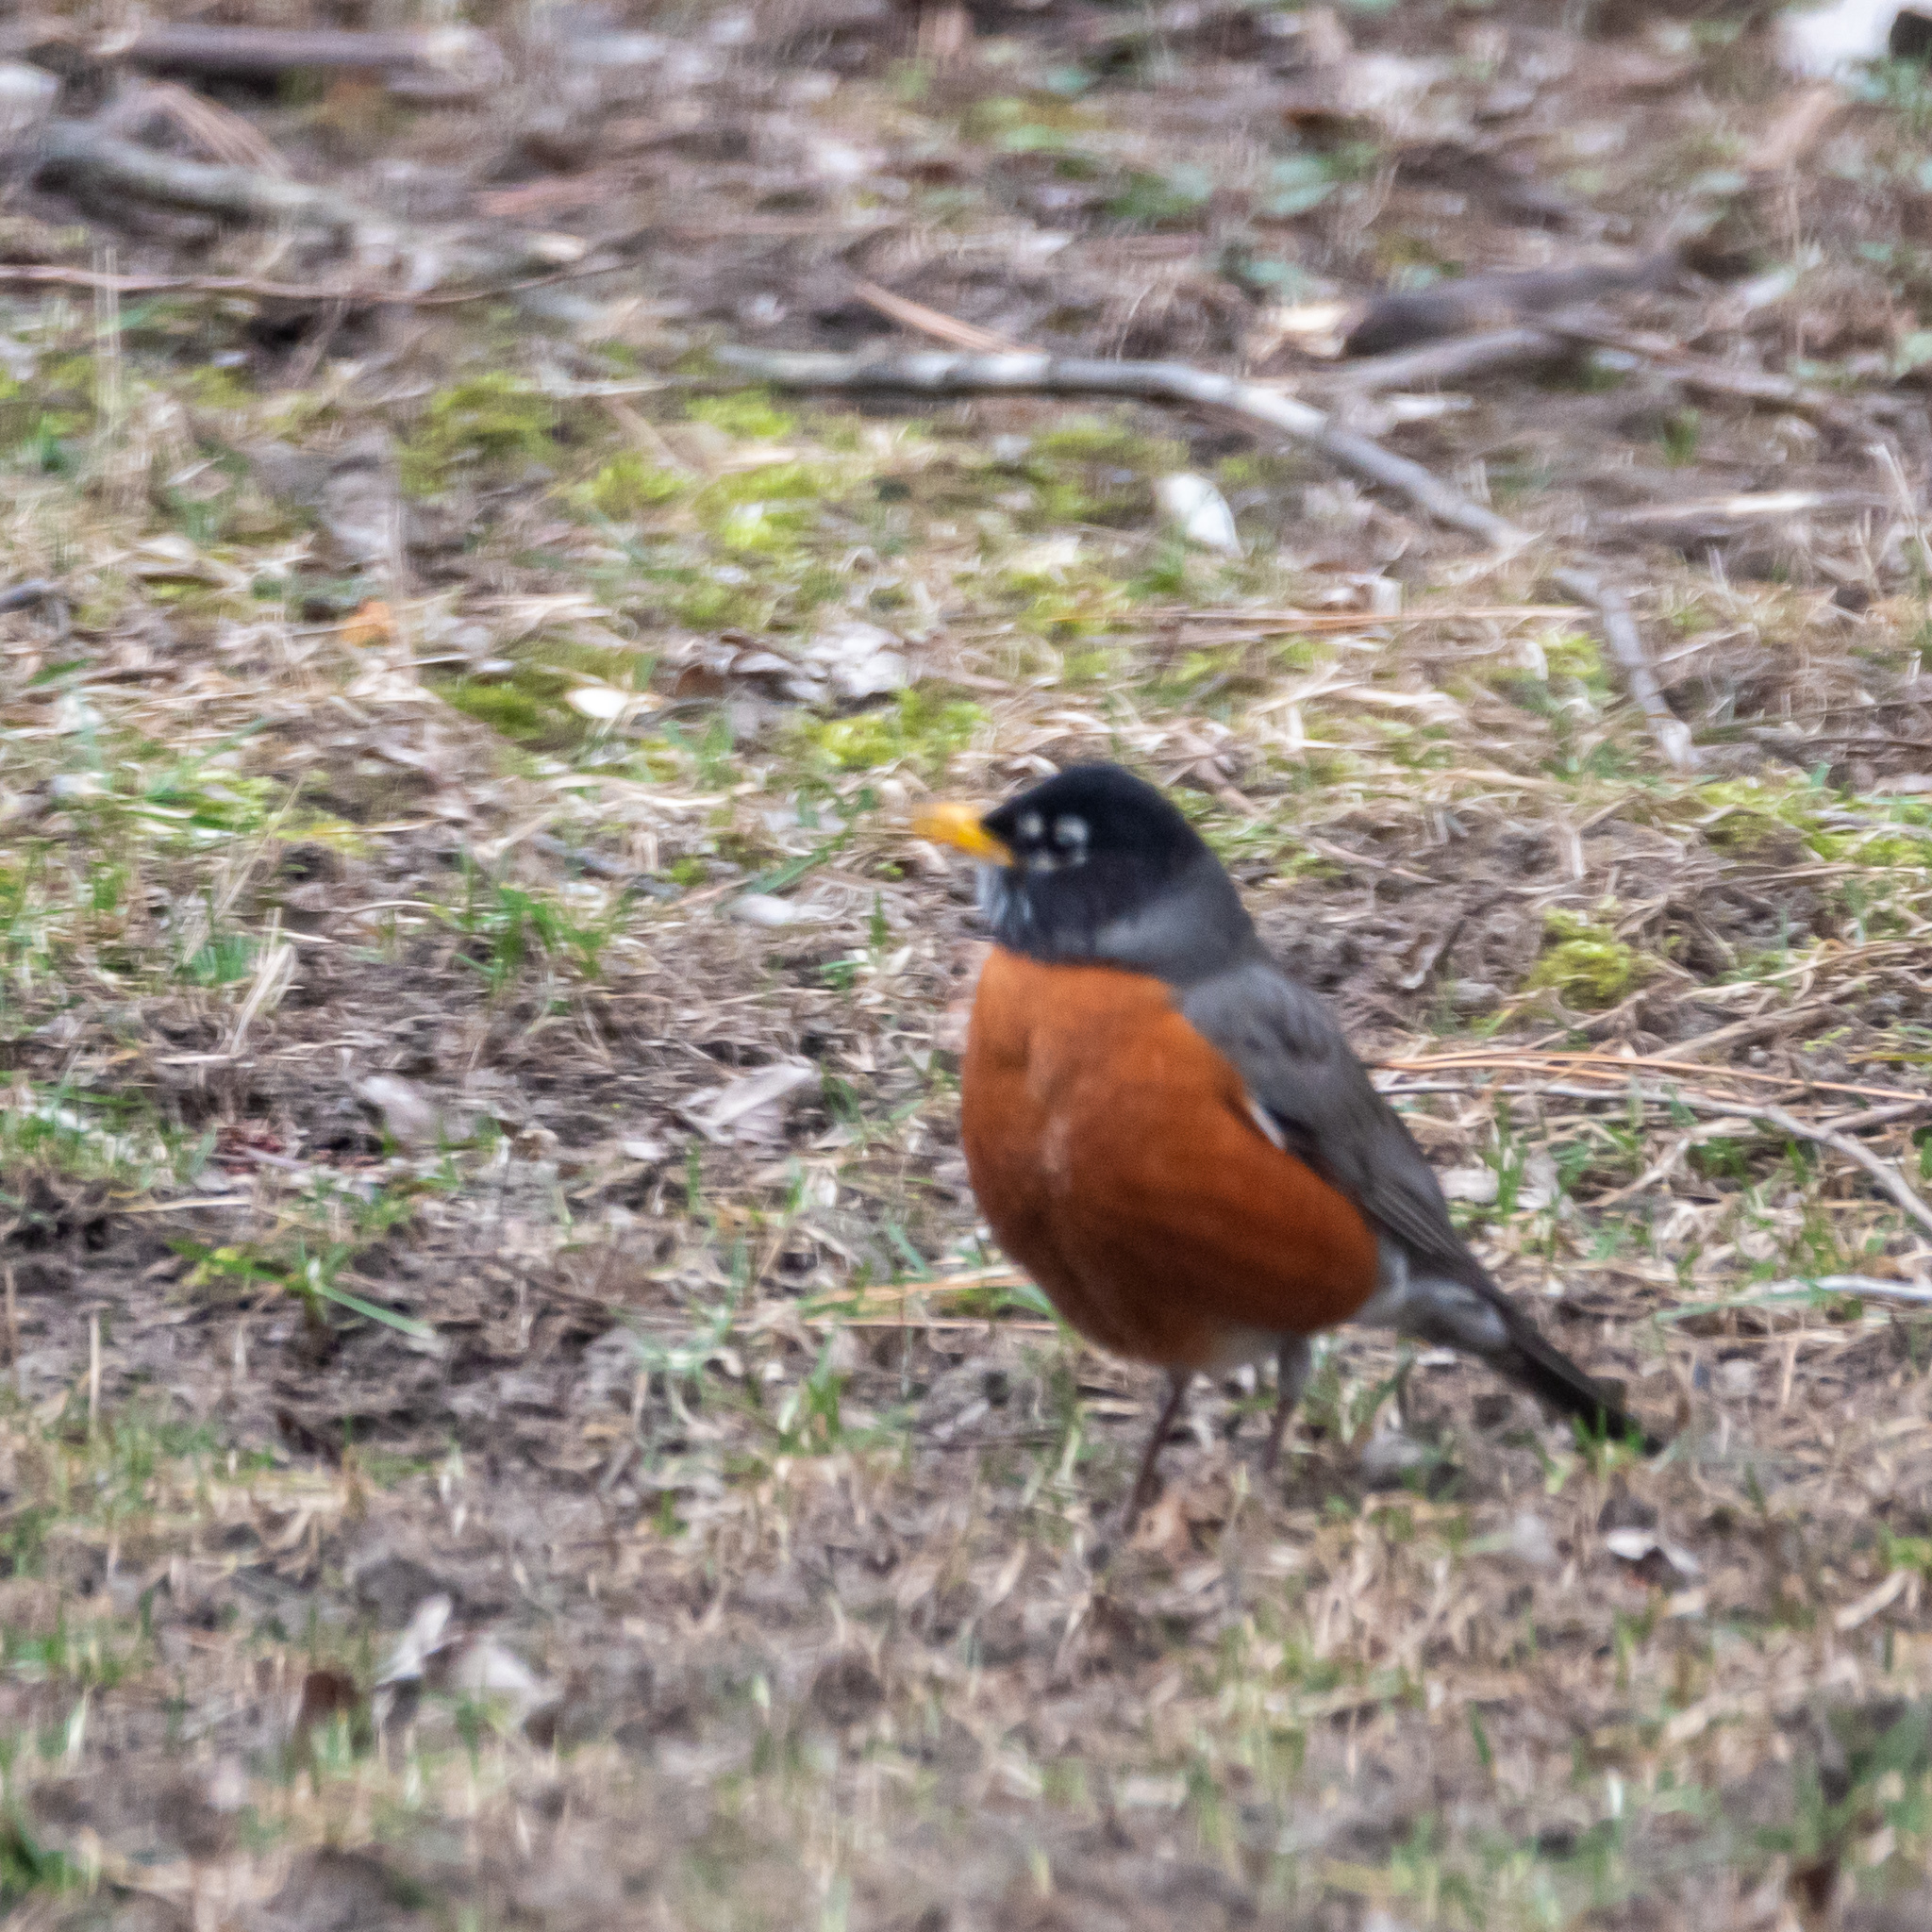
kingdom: Animalia
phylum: Chordata
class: Aves
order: Passeriformes
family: Turdidae
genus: Turdus
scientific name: Turdus migratorius
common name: American robin
